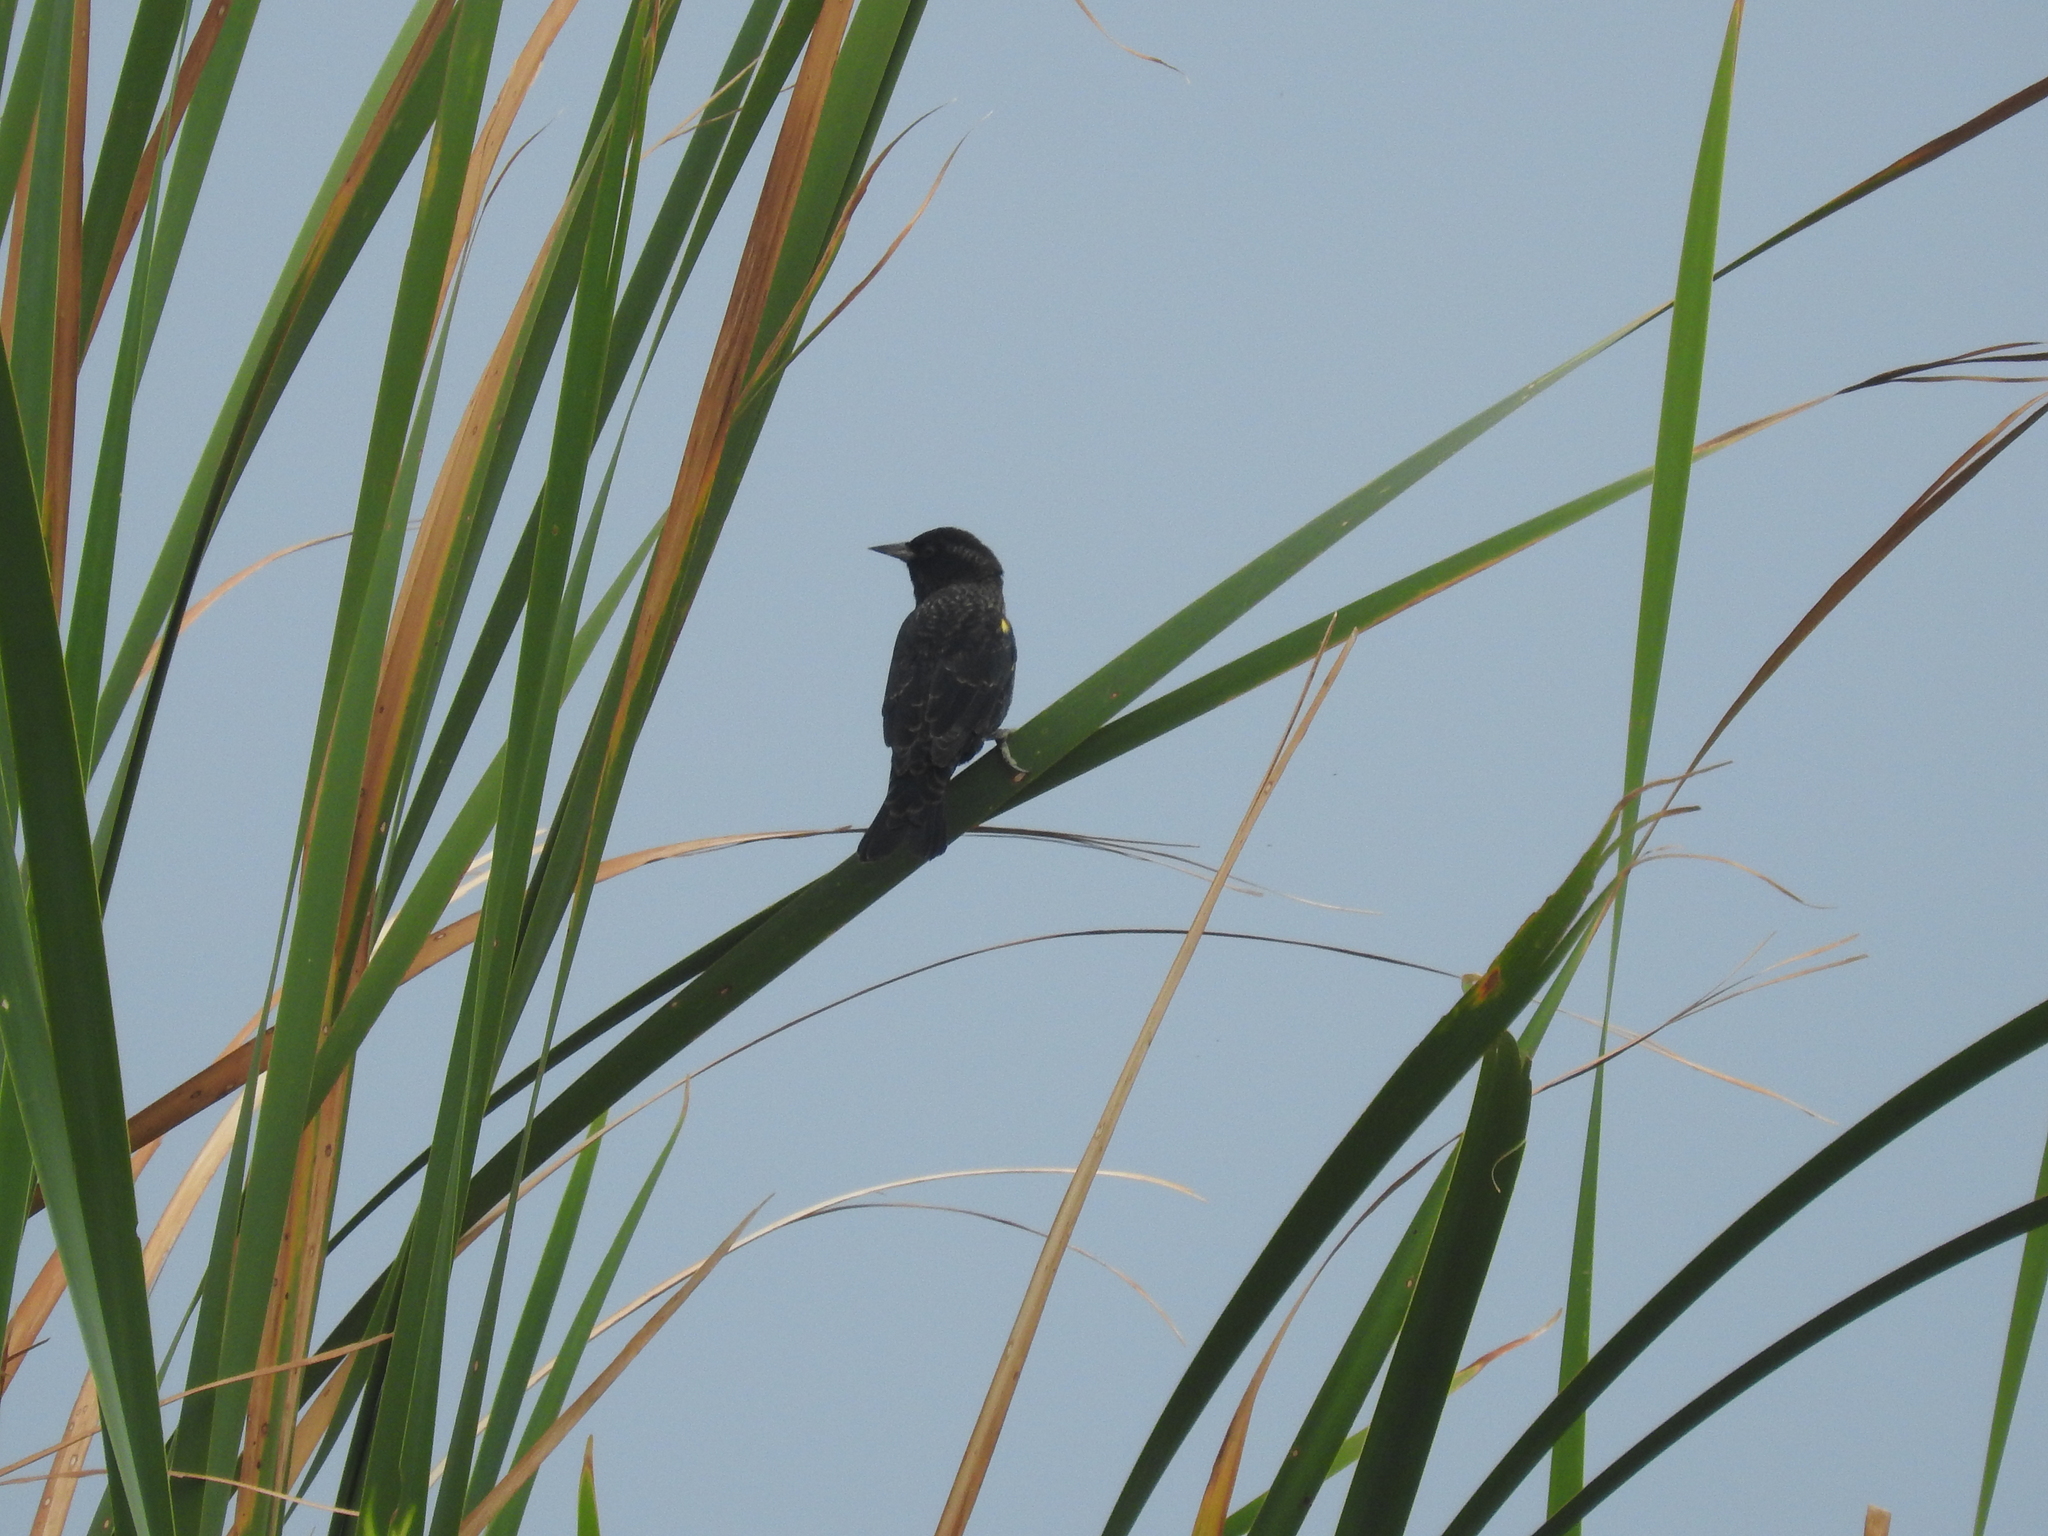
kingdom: Animalia
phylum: Chordata
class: Aves
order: Passeriformes
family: Icteridae
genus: Agelasticus
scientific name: Agelasticus thilius
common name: Yellow-winged blackbird
